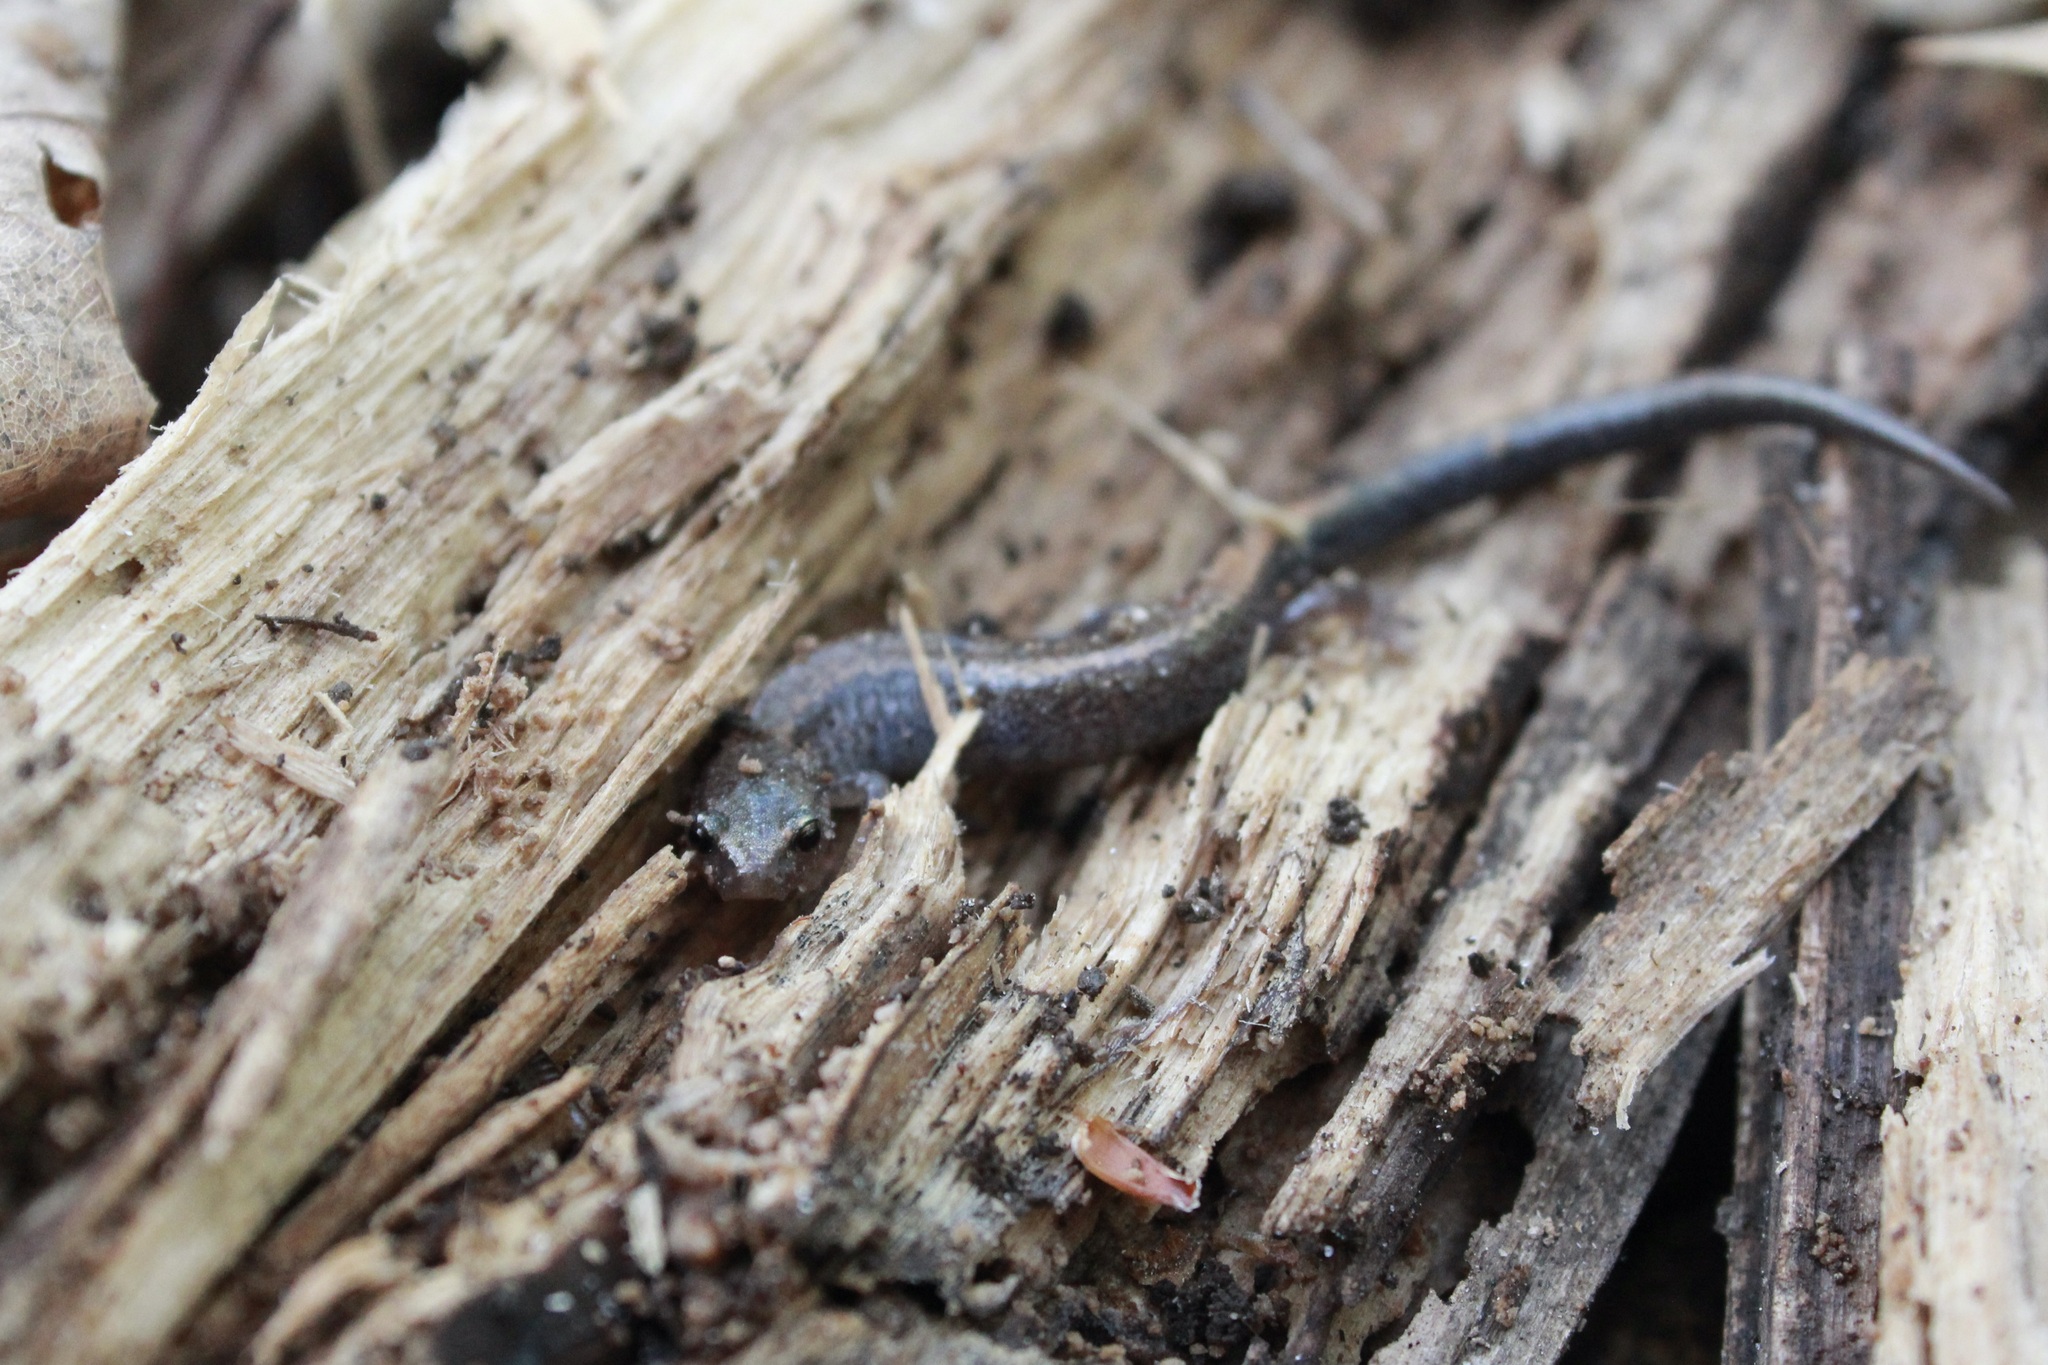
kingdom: Animalia
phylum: Chordata
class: Amphibia
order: Caudata
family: Plethodontidae
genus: Plethodon
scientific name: Plethodon cinereus
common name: Redback salamander
